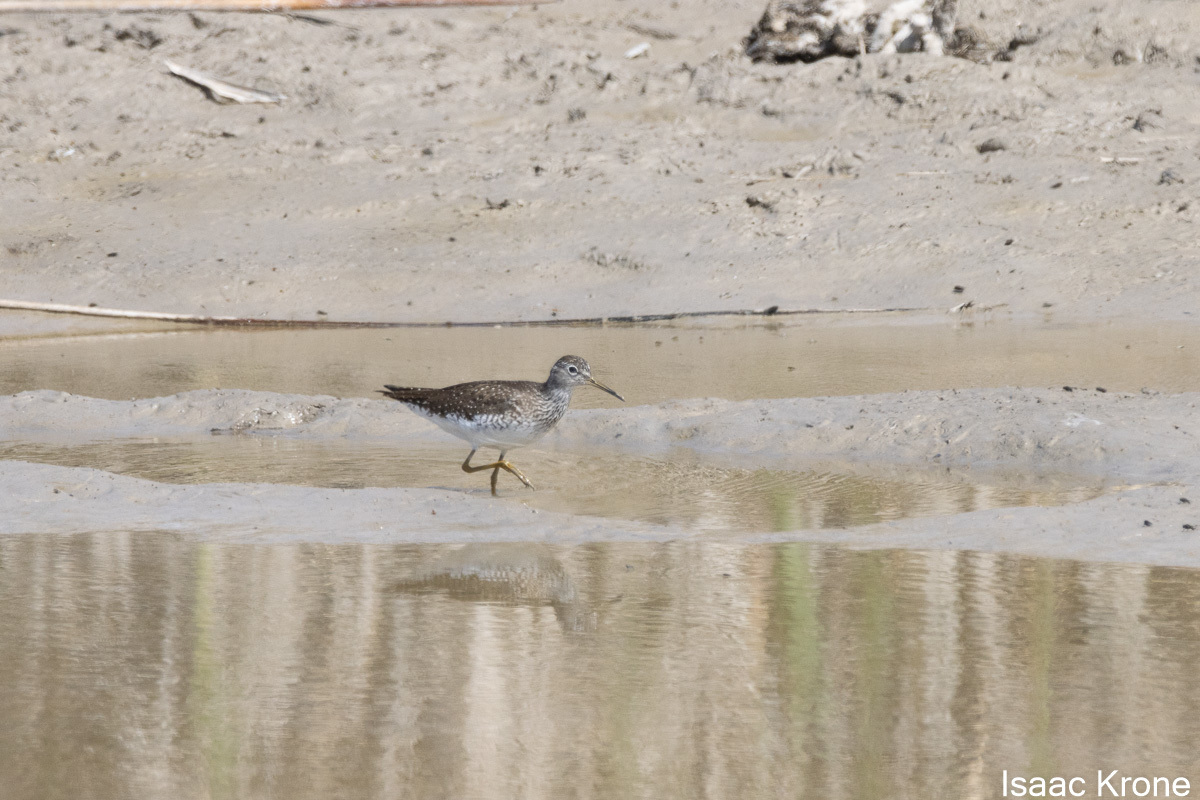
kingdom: Animalia
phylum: Chordata
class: Aves
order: Charadriiformes
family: Scolopacidae
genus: Tringa
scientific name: Tringa solitaria
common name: Solitary sandpiper
